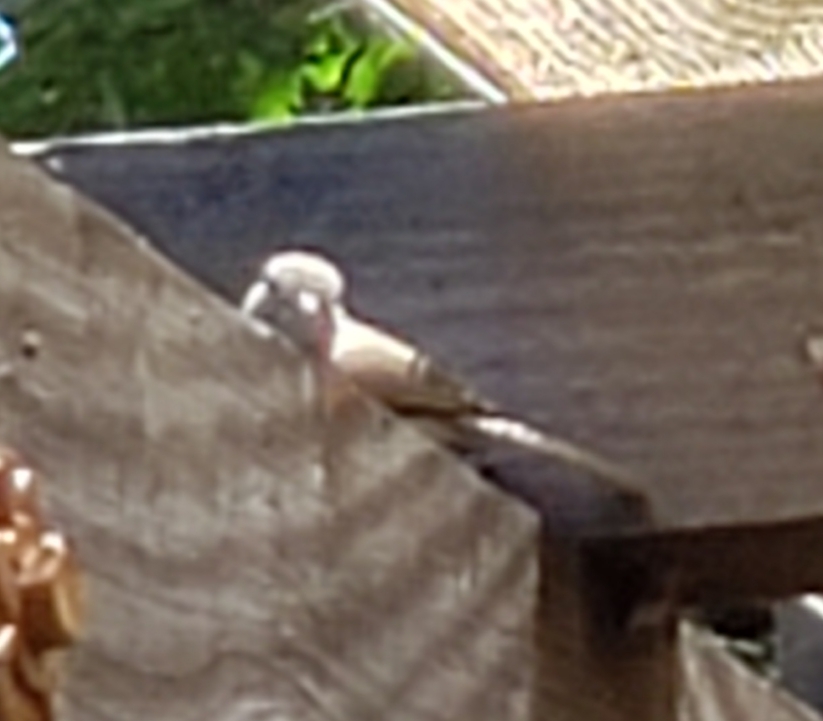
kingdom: Animalia
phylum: Chordata
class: Aves
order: Passeriformes
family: Paridae
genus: Baeolophus
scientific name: Baeolophus inornatus
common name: Oak titmouse
